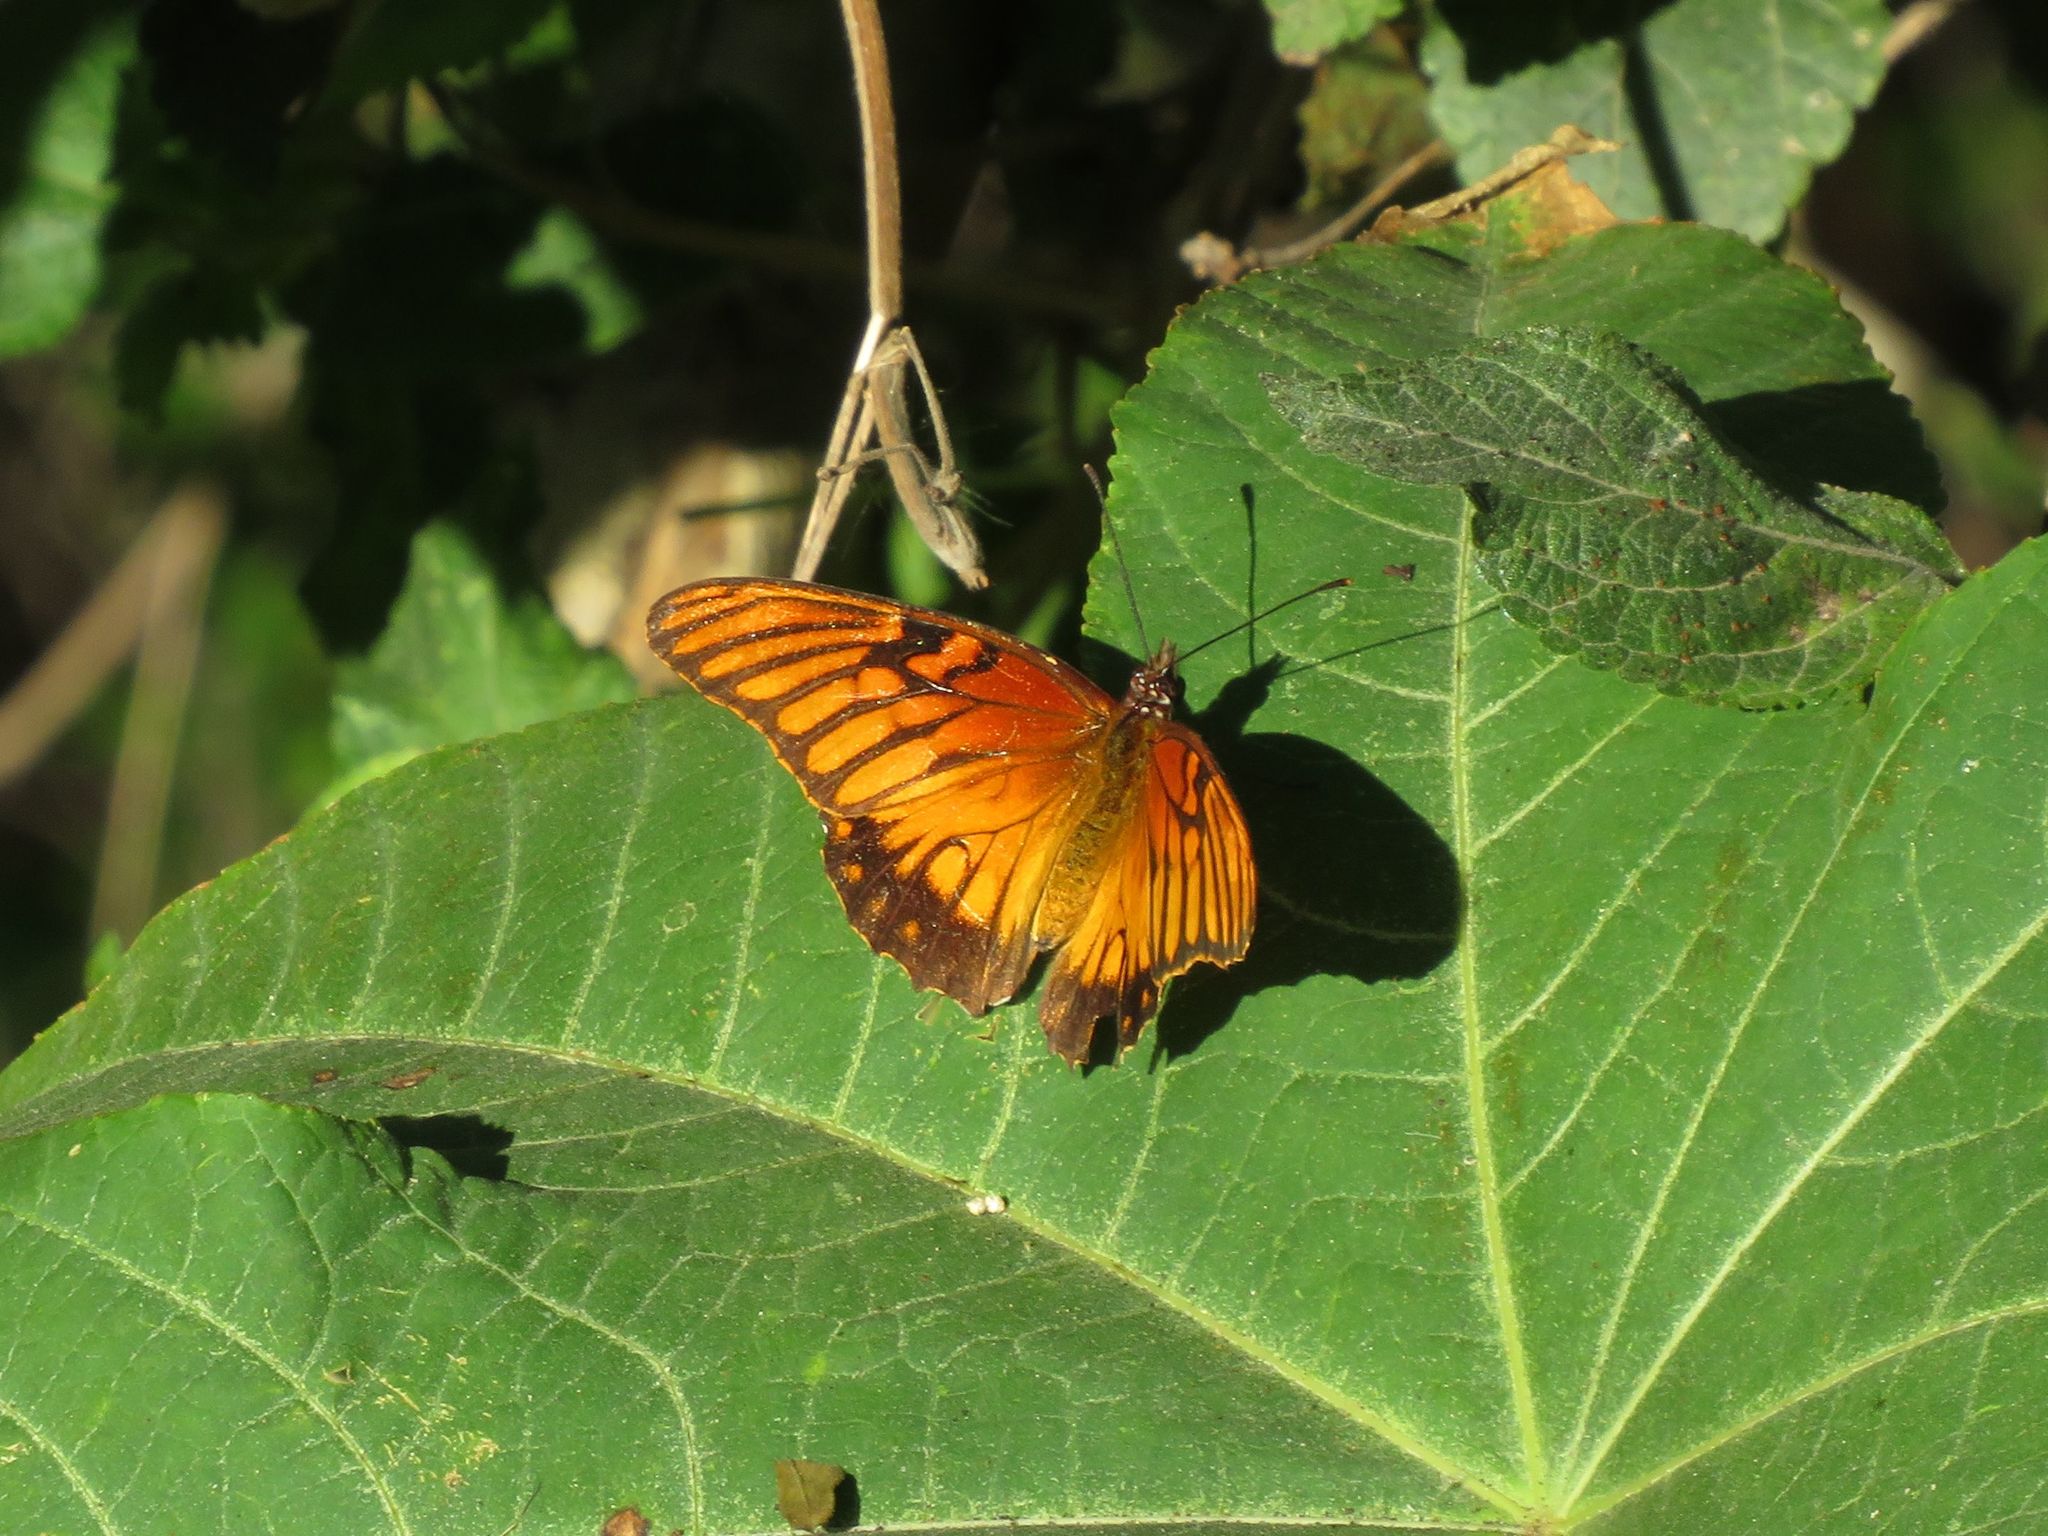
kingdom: Animalia
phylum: Arthropoda
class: Insecta
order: Lepidoptera
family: Nymphalidae
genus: Dione
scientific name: Dione moneta
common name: Mexican silverspot
